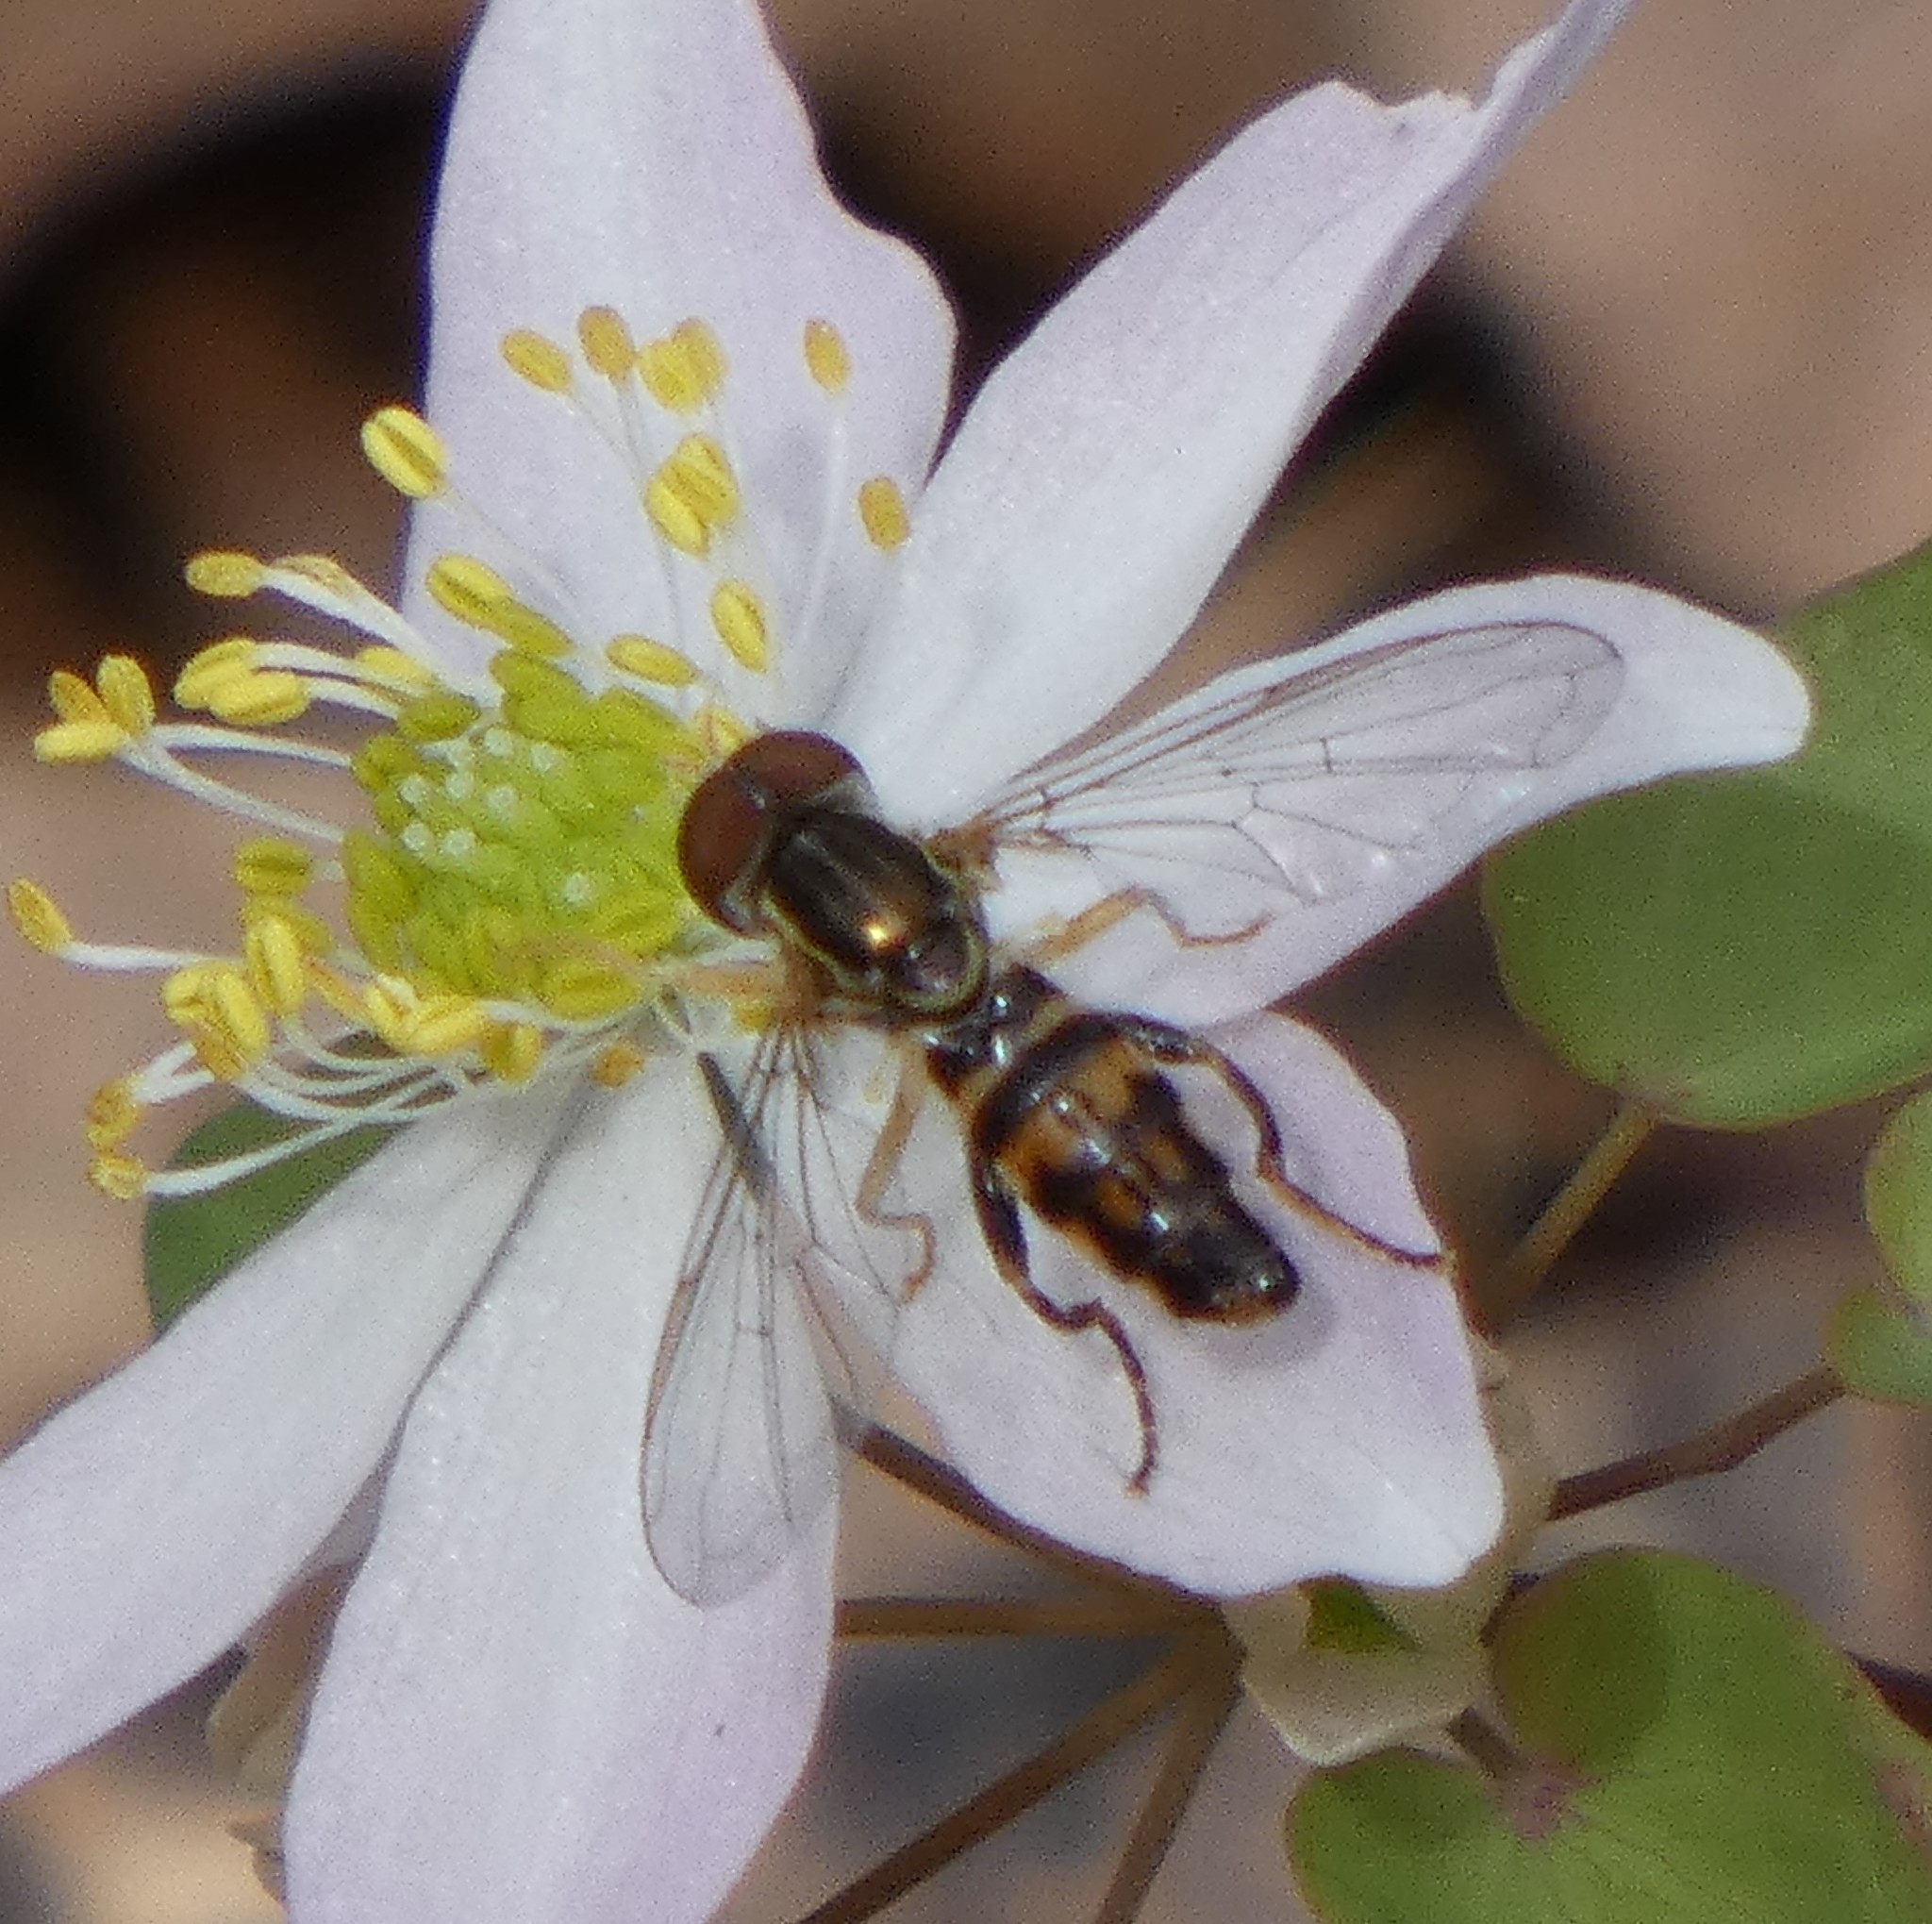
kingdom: Animalia
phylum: Arthropoda
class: Insecta
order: Diptera
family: Syrphidae
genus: Toxomerus
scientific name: Toxomerus geminatus
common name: Eastern calligrapher
